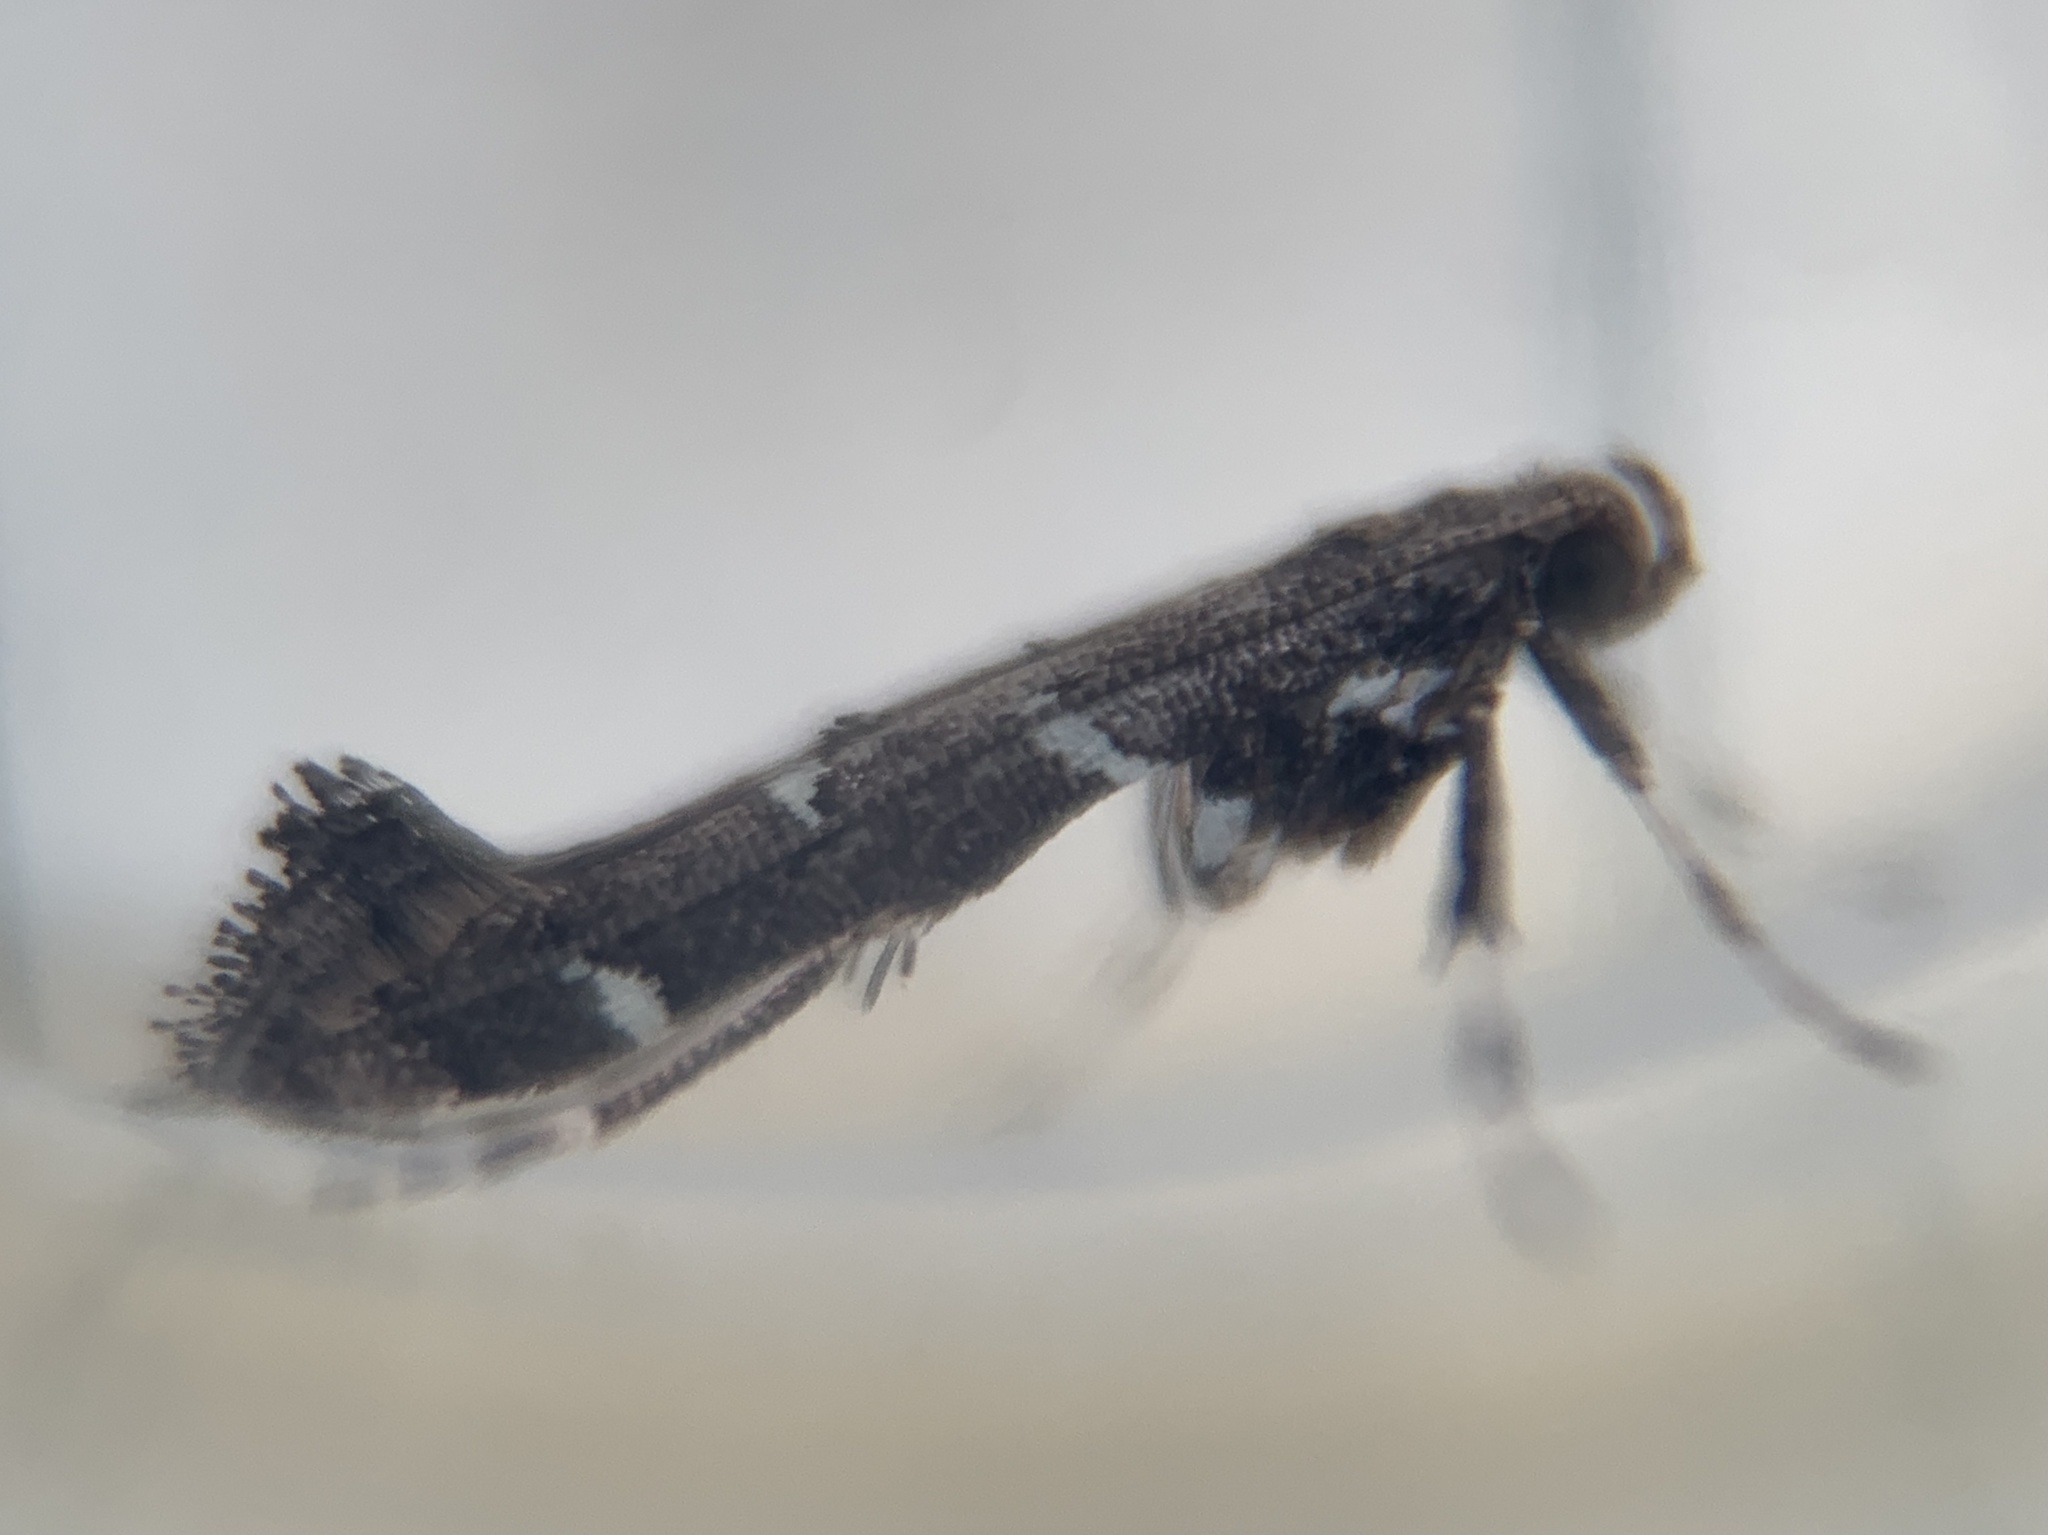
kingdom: Animalia
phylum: Arthropoda
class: Insecta
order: Lepidoptera
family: Gracillariidae
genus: Caloptilia
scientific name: Caloptilia triadicae
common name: Tallow leaf roller
